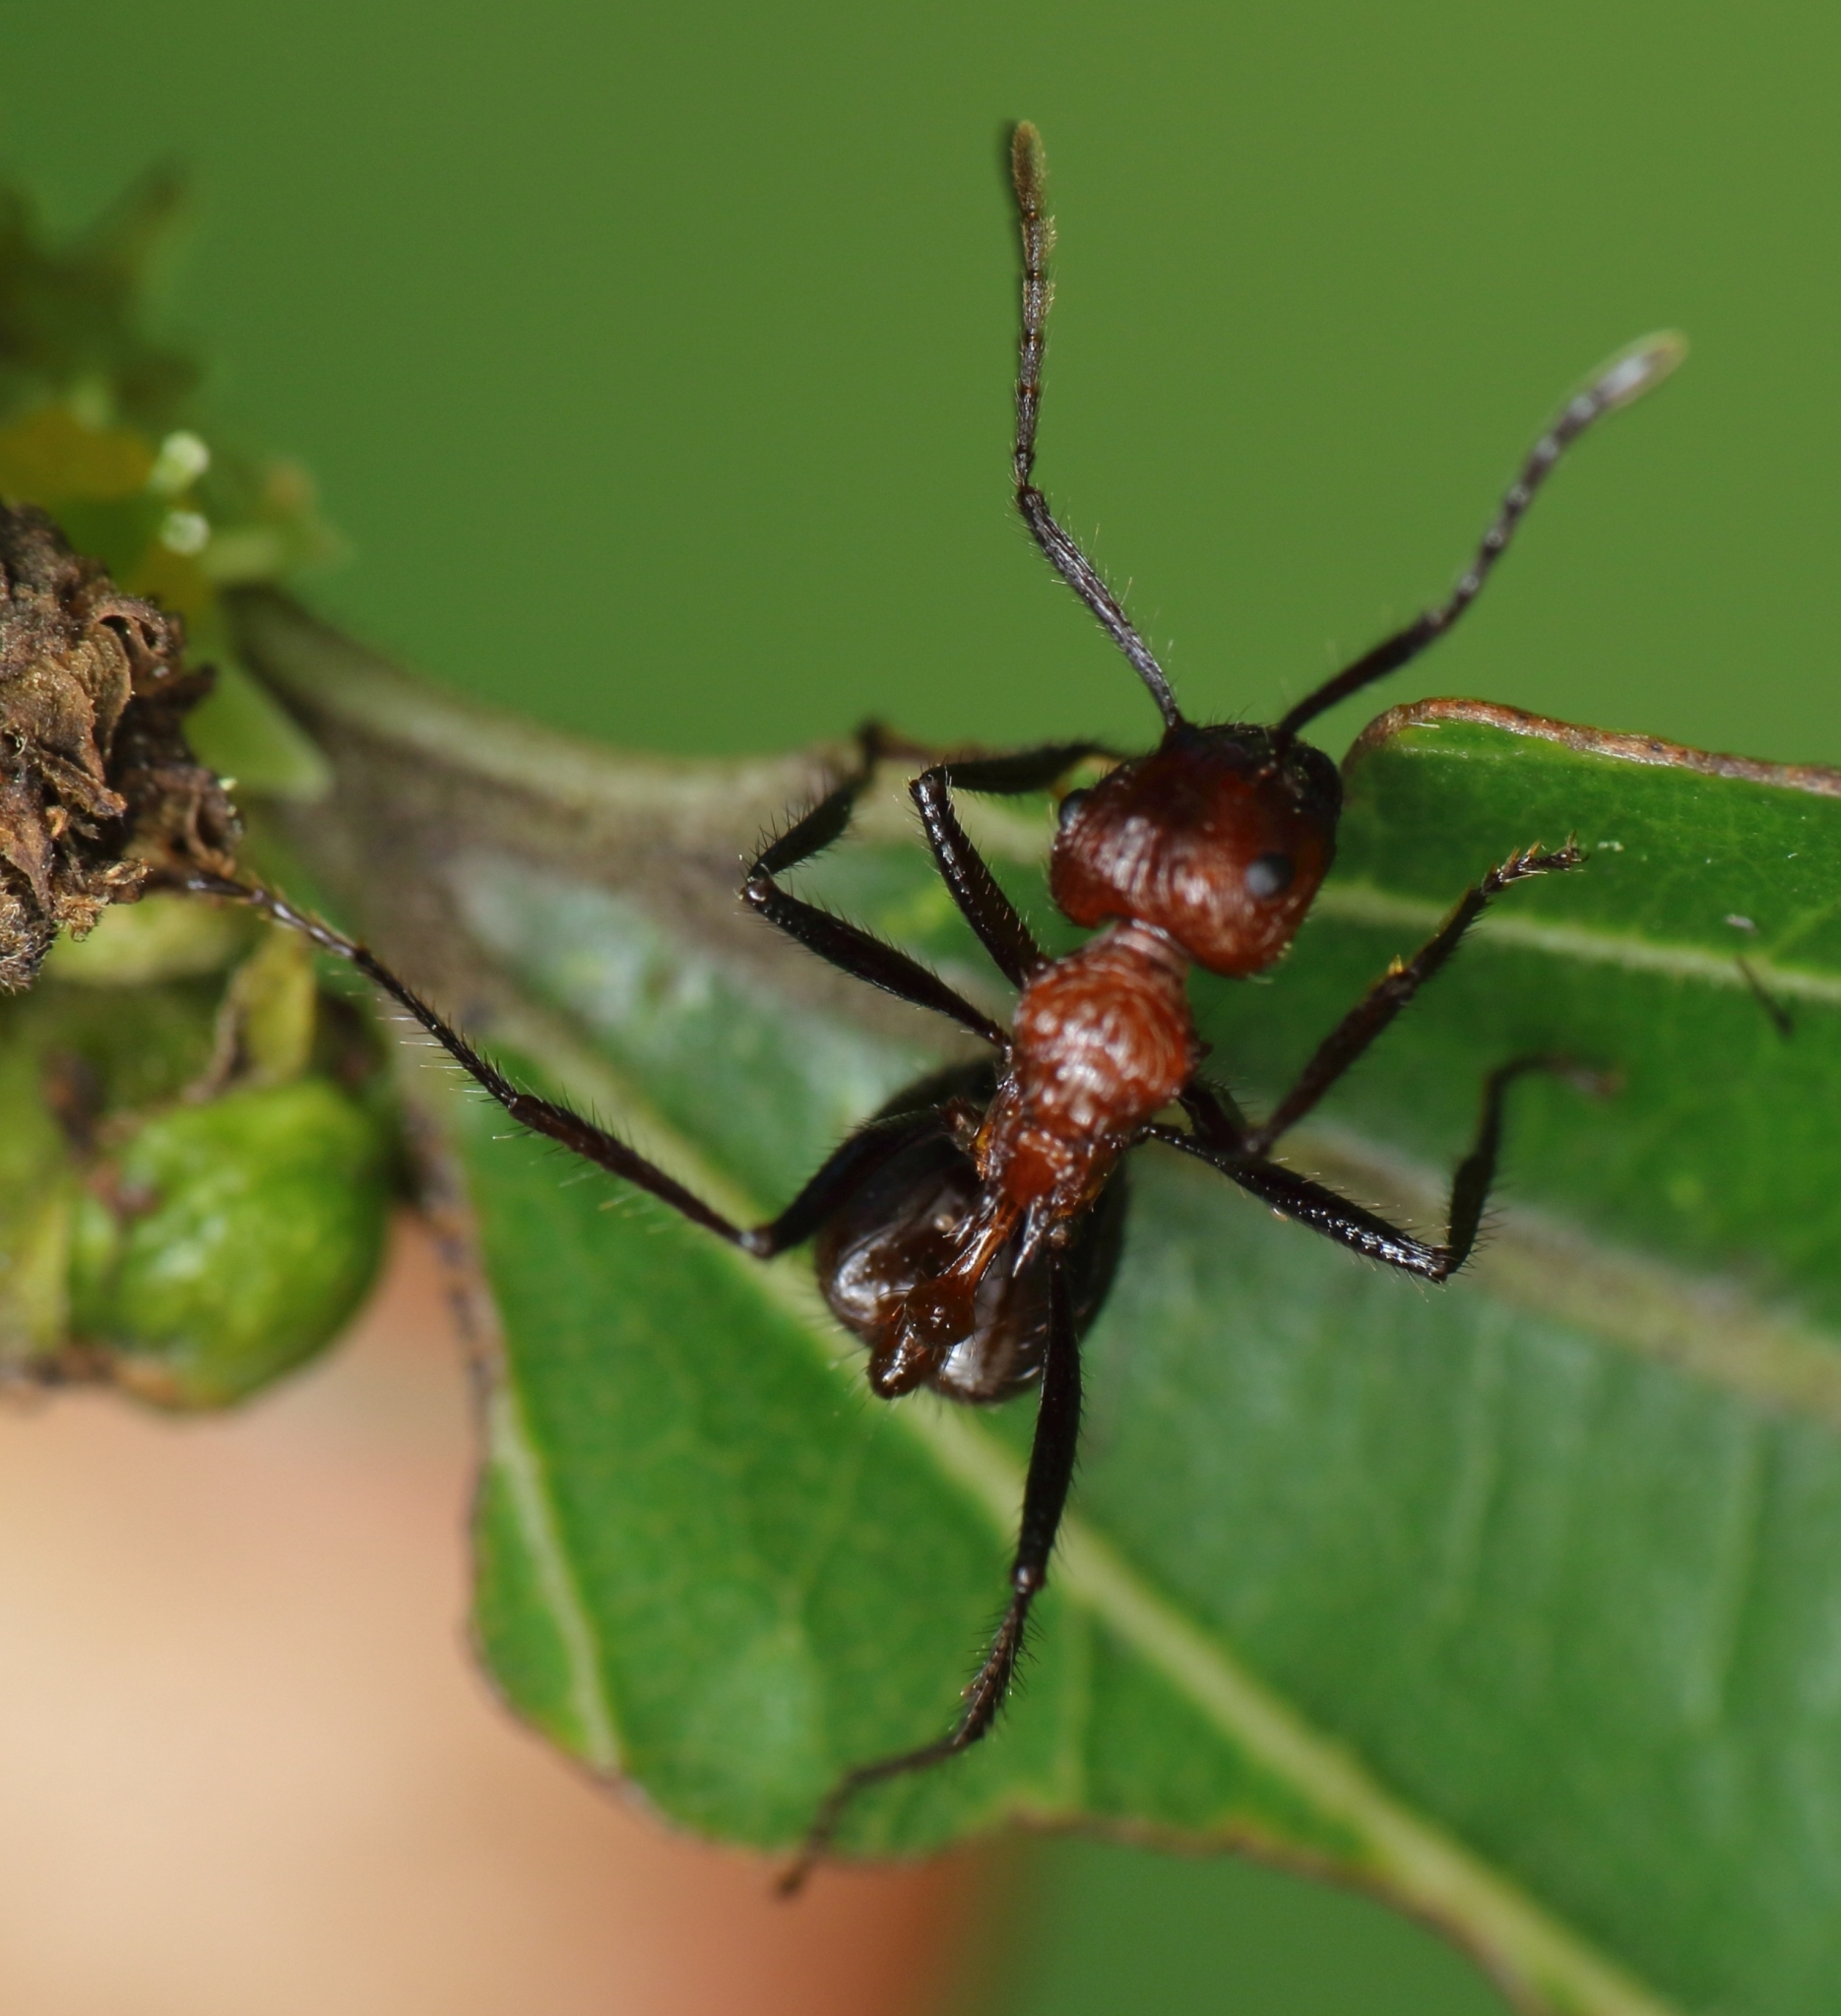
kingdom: Plantae
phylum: Tracheophyta
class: Magnoliopsida
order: Rosales
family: Rhamnaceae
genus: Ziziphus
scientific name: Ziziphus mucronata
